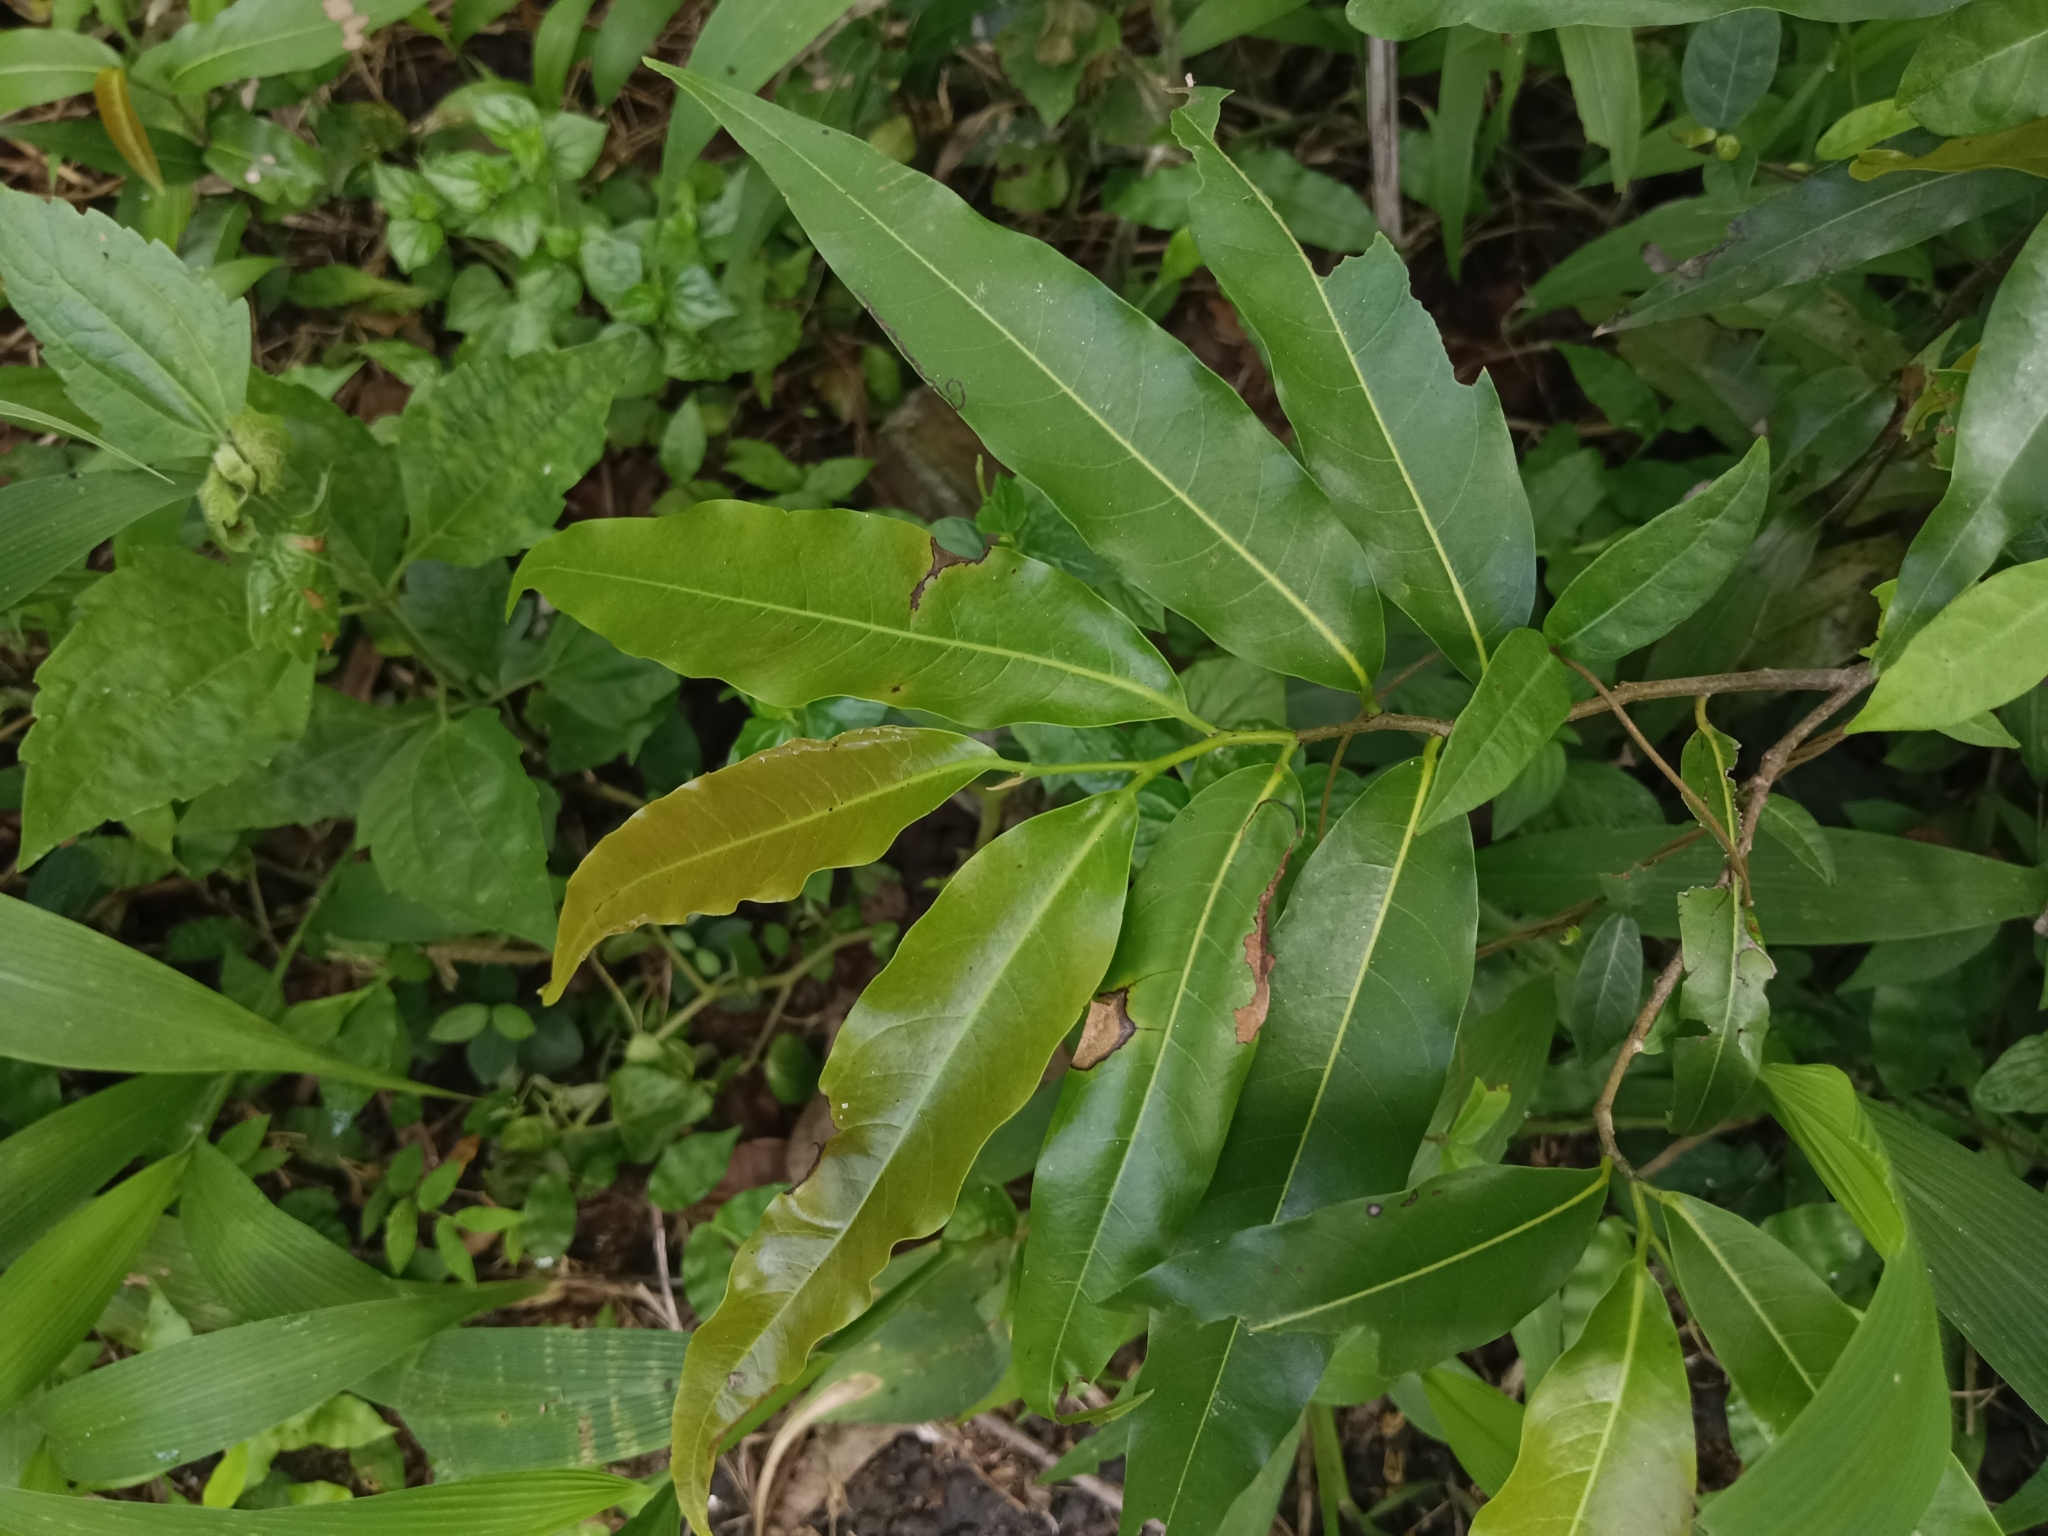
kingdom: Plantae
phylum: Tracheophyta
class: Magnoliopsida
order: Magnoliales
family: Annonaceae
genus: Polyalthia
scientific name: Polyalthia longifolia
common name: Cemetery-tree
